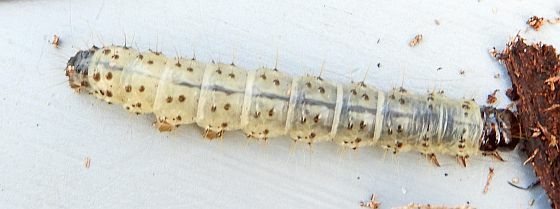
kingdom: Animalia
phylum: Arthropoda
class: Insecta
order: Lepidoptera
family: Erebidae
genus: Scolecocampa
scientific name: Scolecocampa liburna
